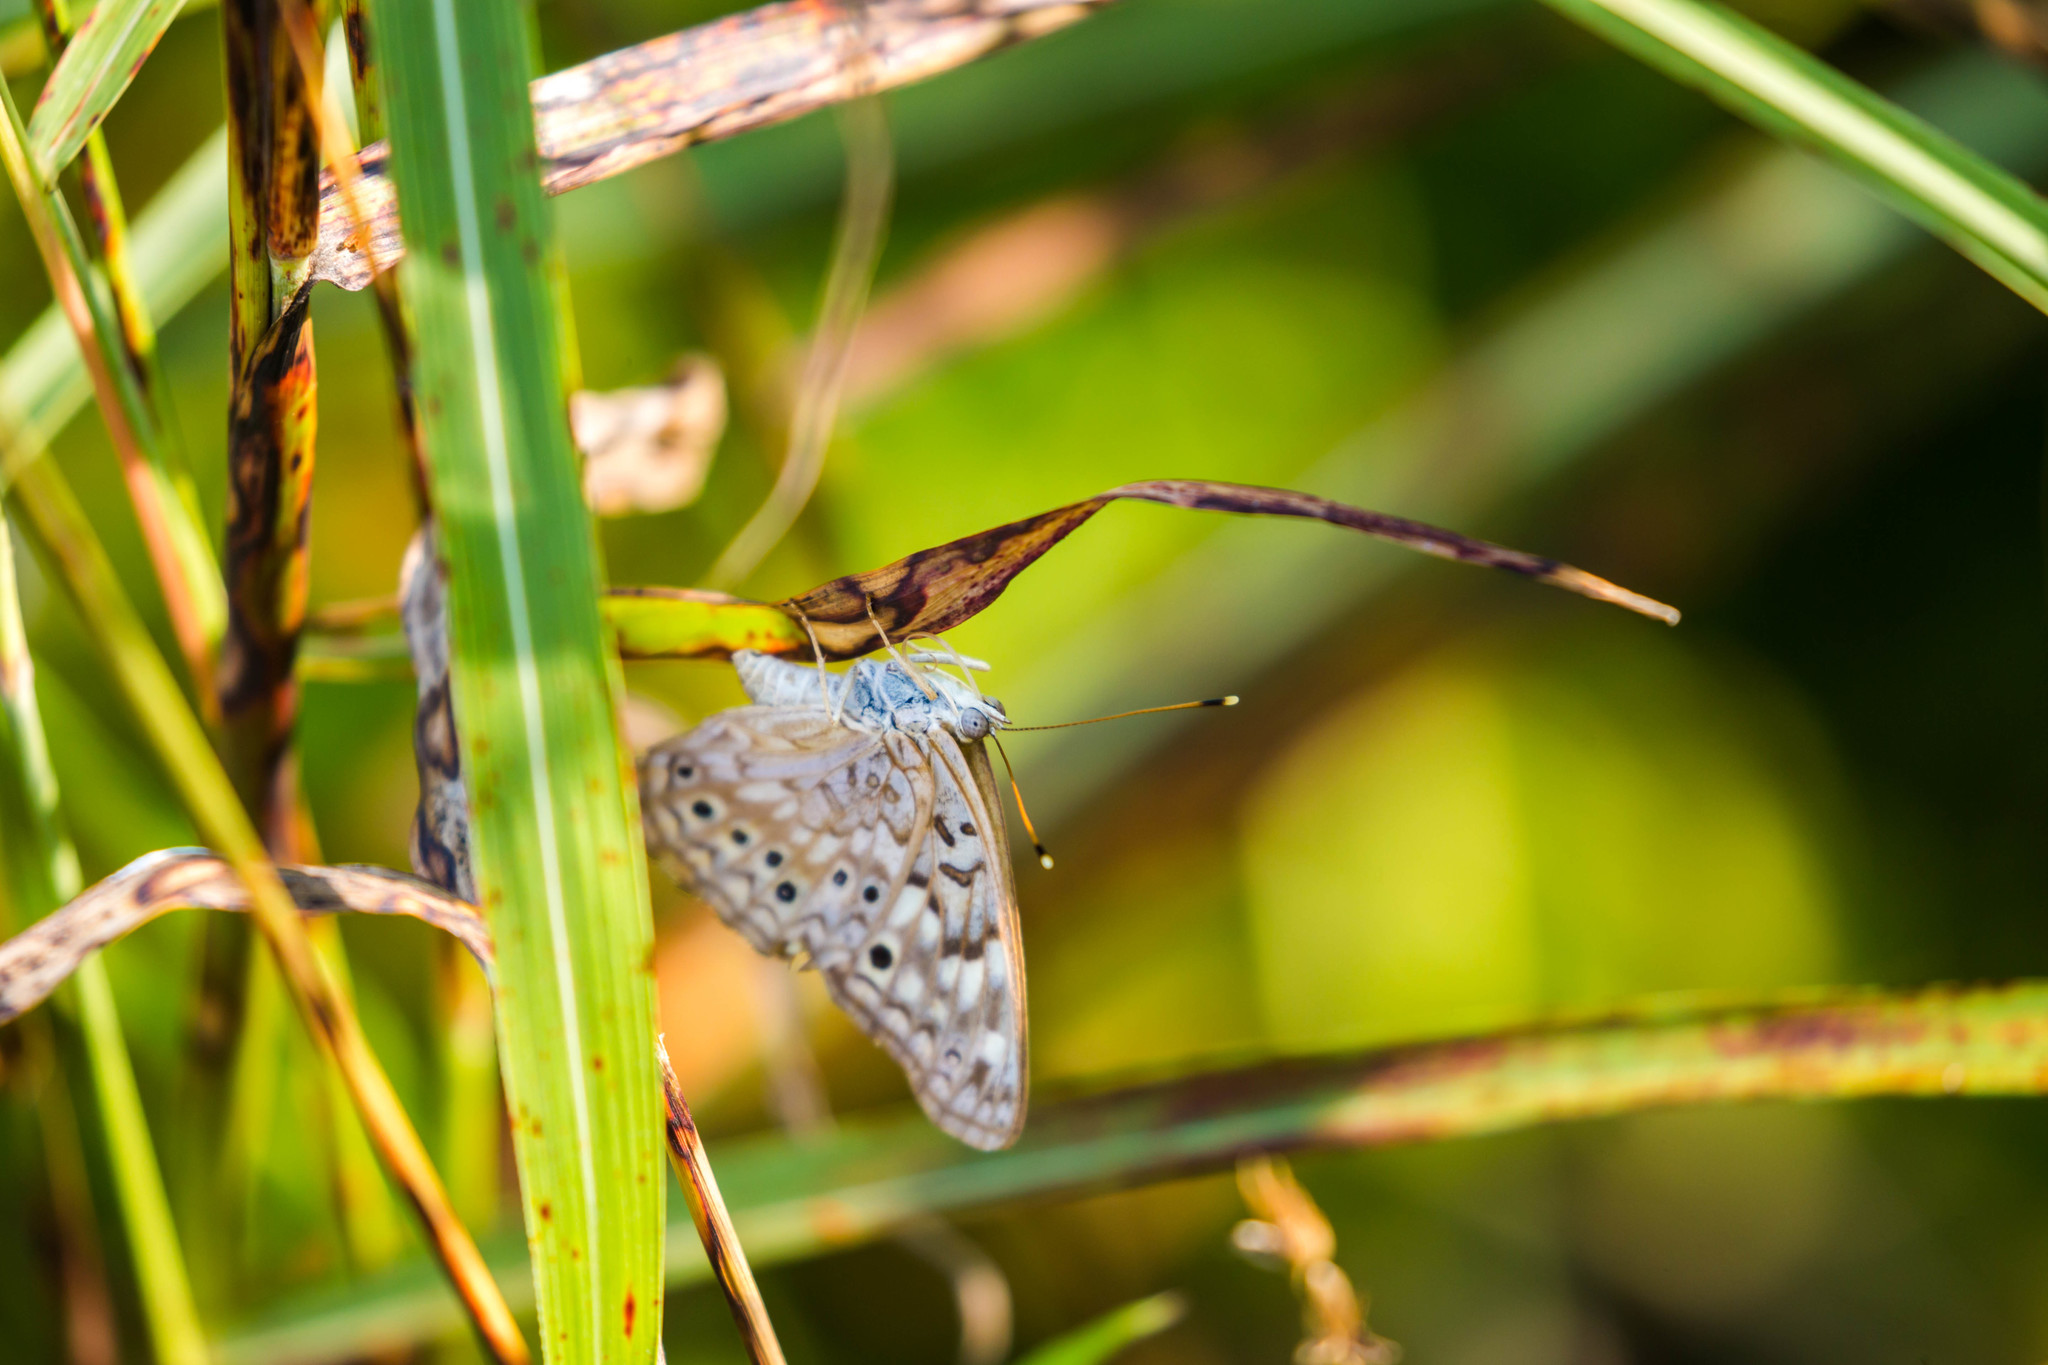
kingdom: Animalia
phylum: Arthropoda
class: Insecta
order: Lepidoptera
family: Nymphalidae
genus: Asterocampa
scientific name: Asterocampa celtis
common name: Hackberry emperor
